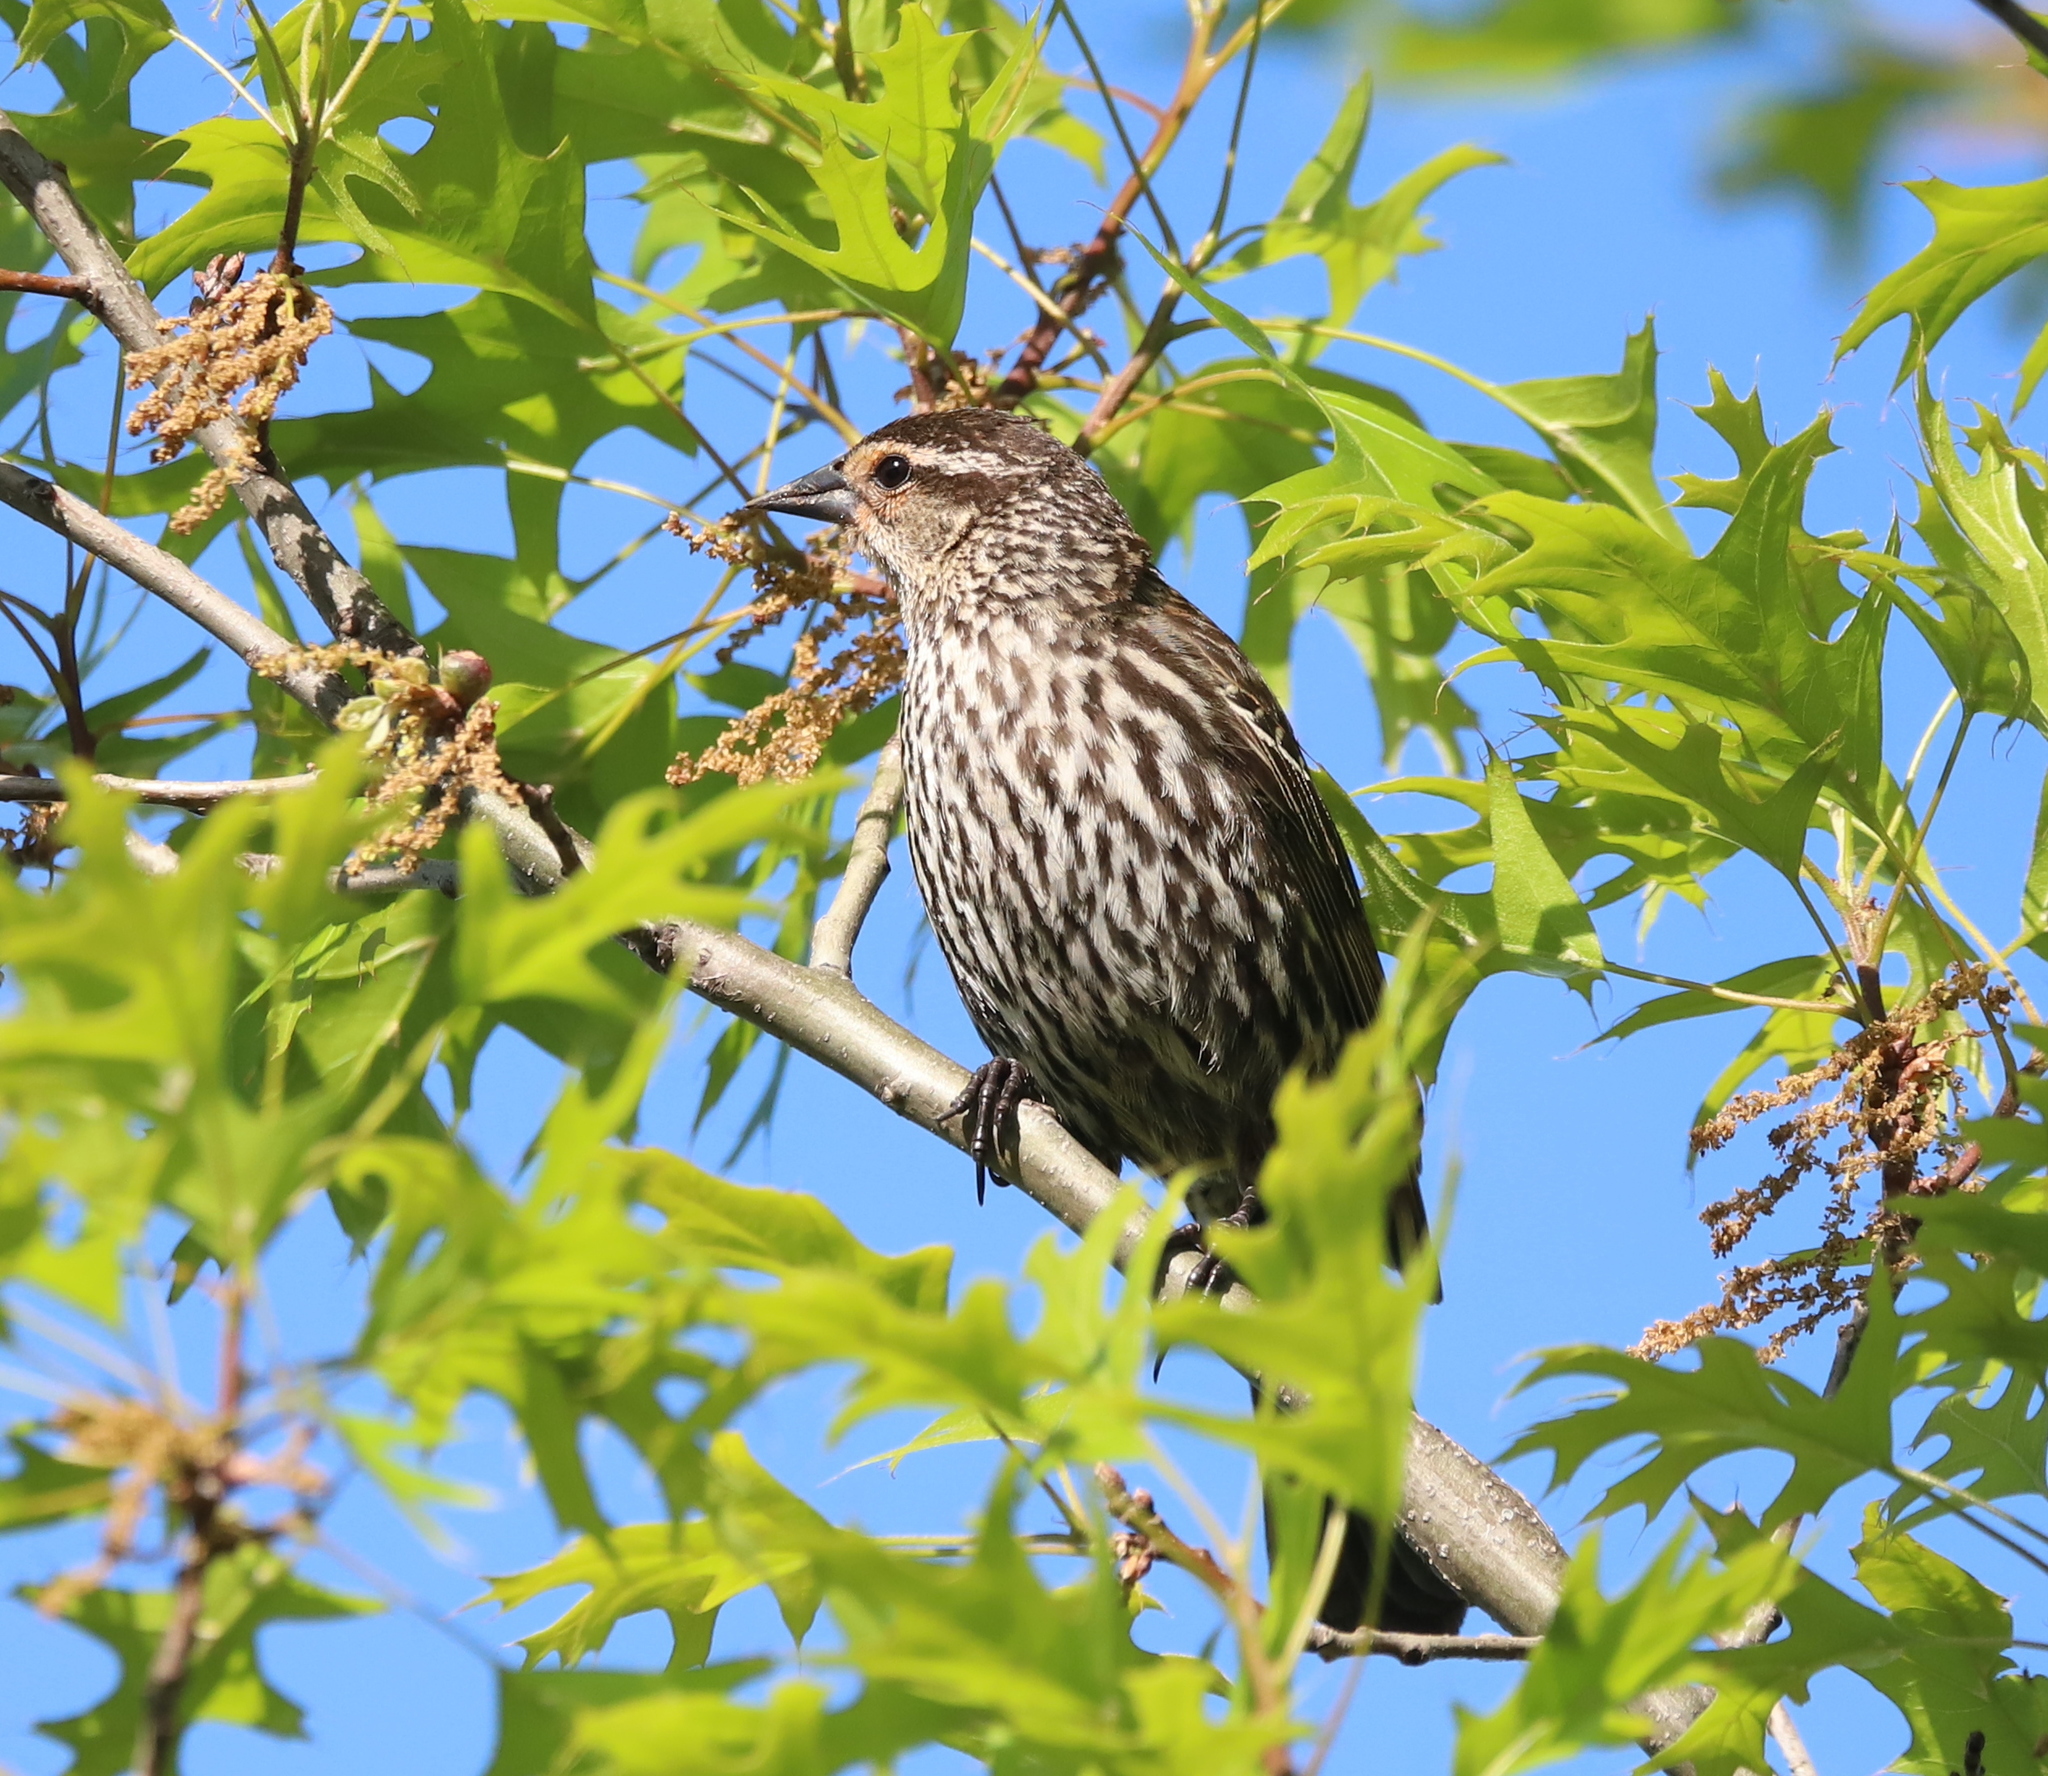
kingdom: Animalia
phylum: Chordata
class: Aves
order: Passeriformes
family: Icteridae
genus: Agelaius
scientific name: Agelaius phoeniceus
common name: Red-winged blackbird
